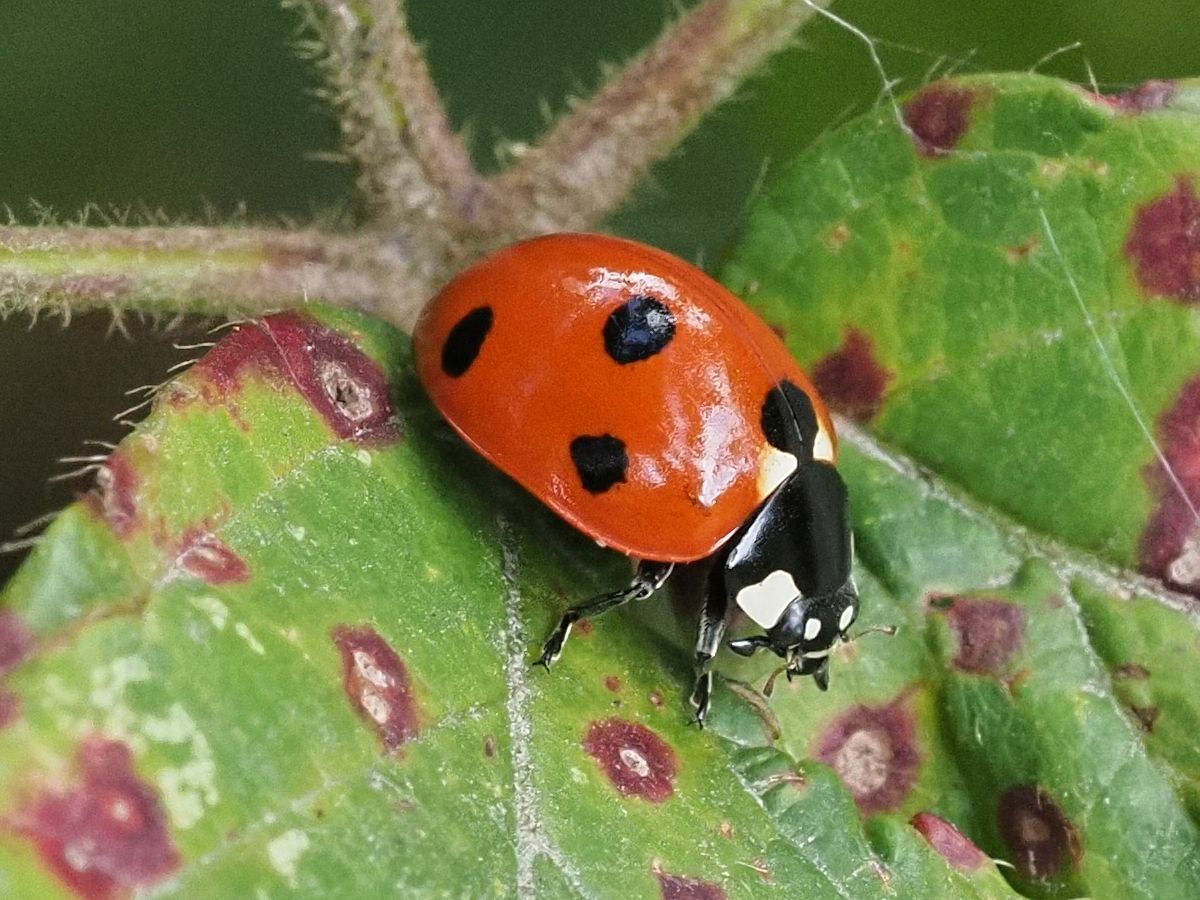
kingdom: Animalia
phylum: Arthropoda
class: Insecta
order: Coleoptera
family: Coccinellidae
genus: Coccinella
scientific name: Coccinella septempunctata
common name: Sevenspotted lady beetle
